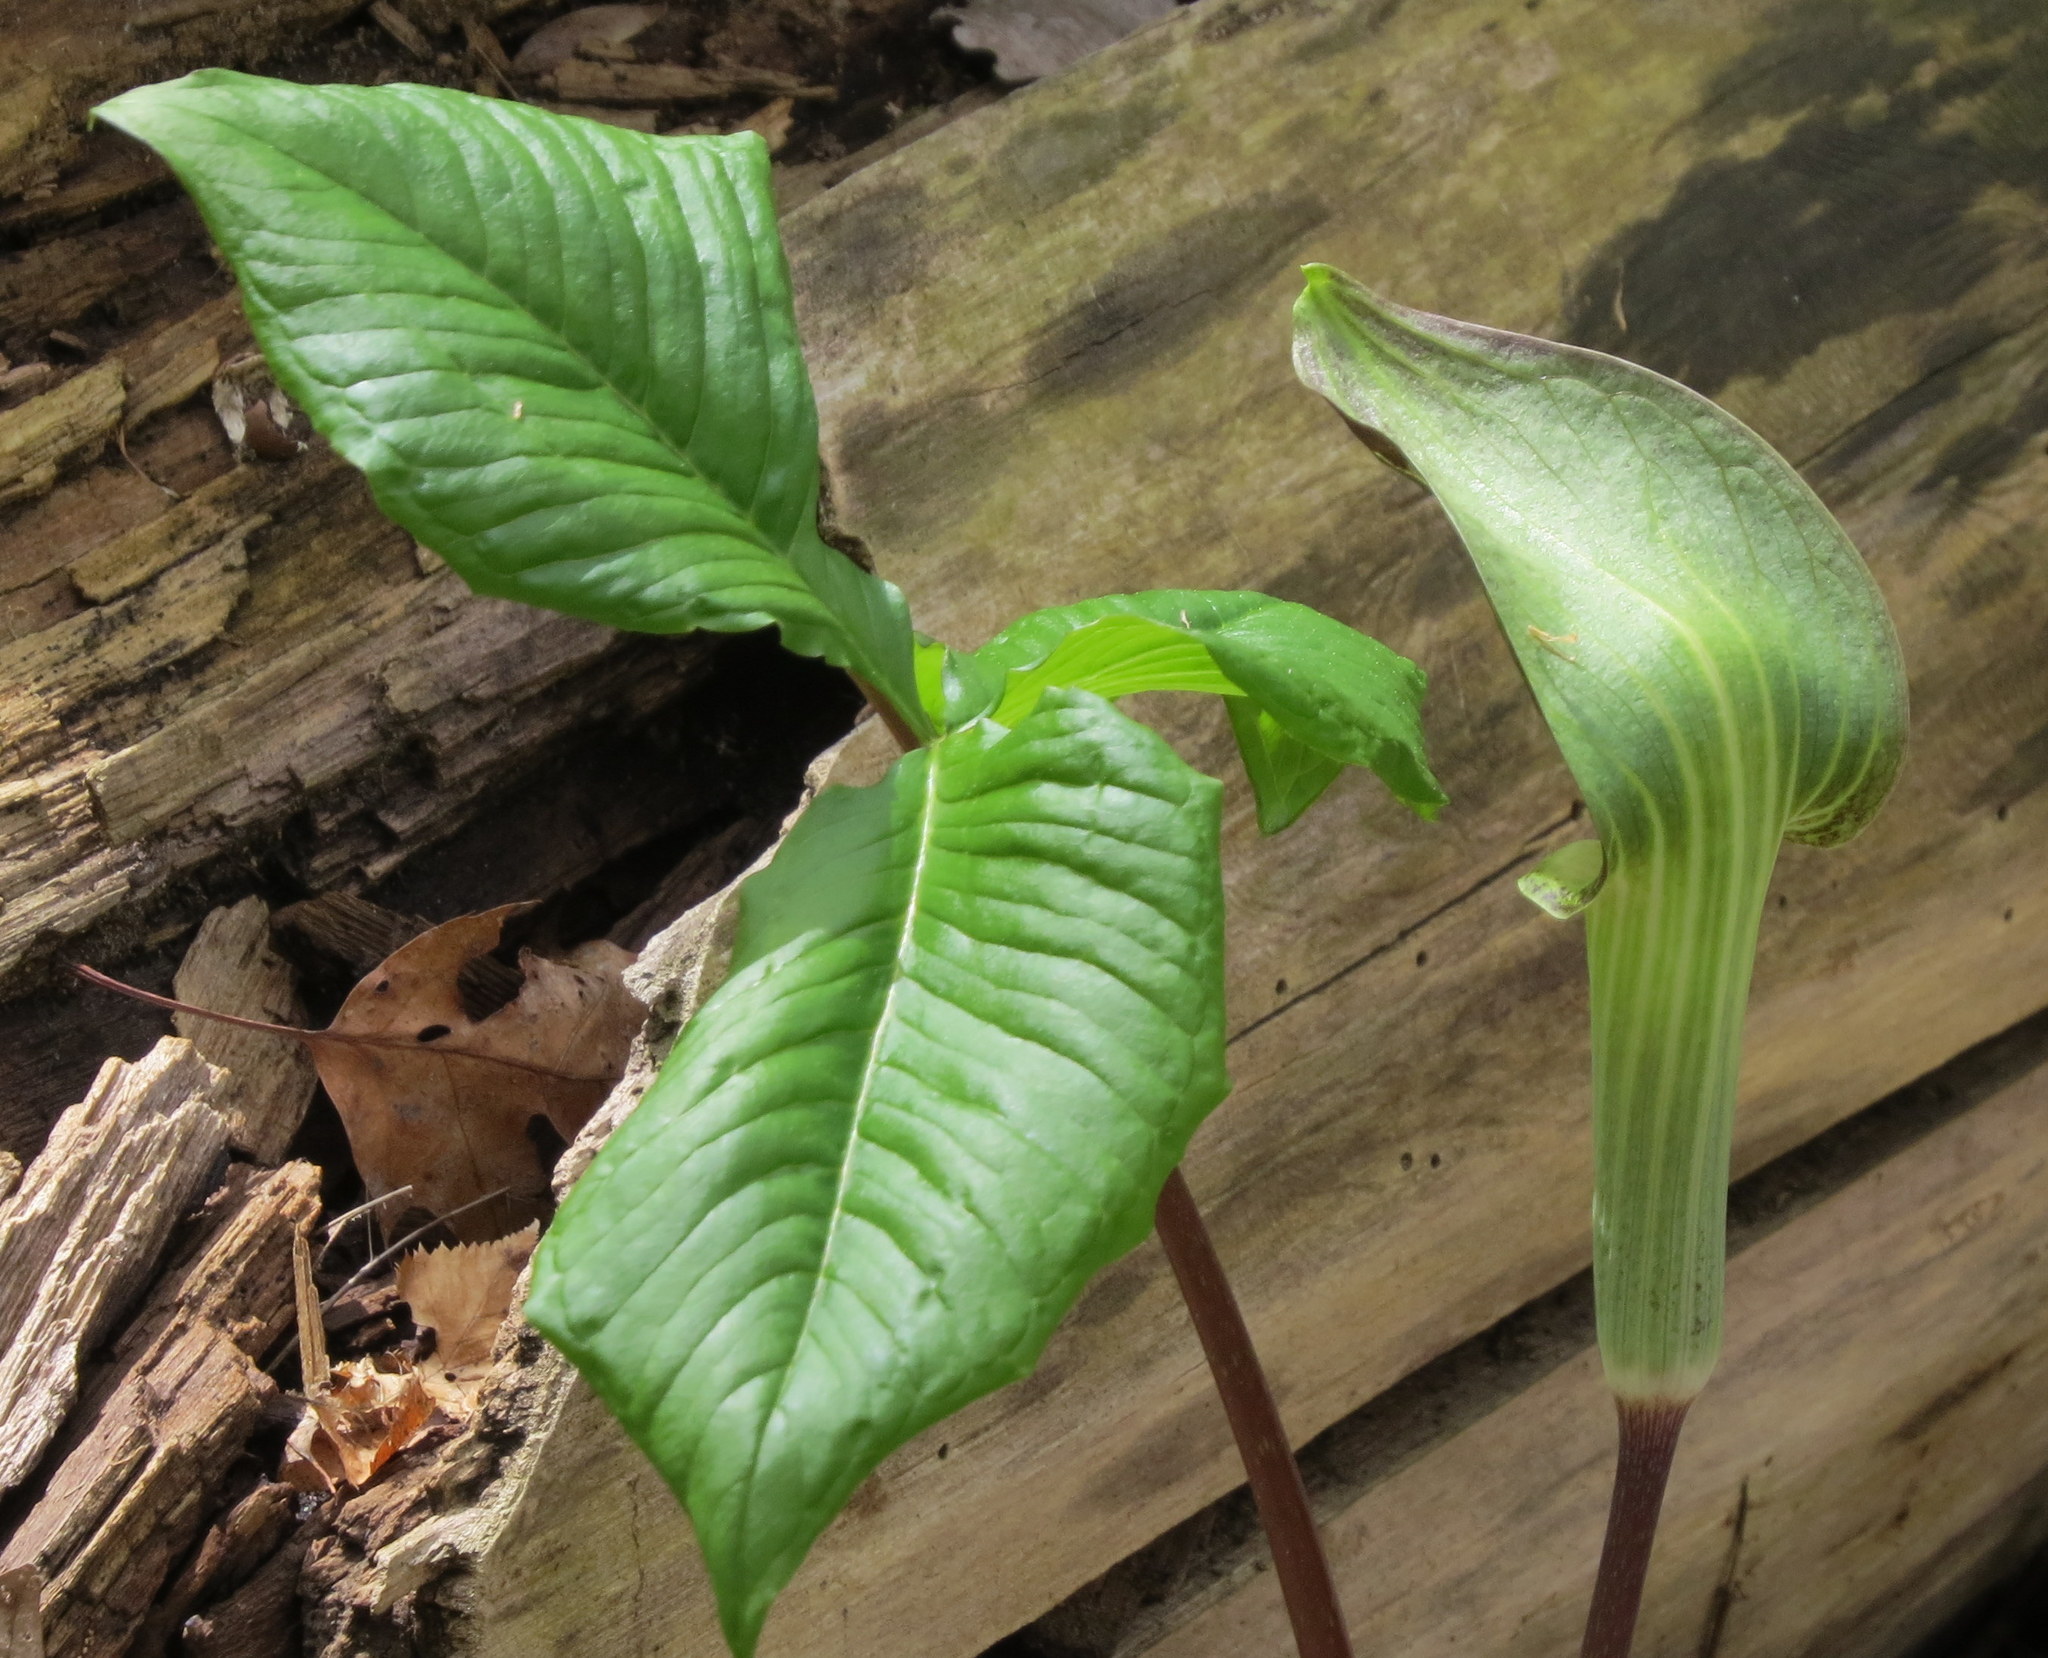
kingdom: Plantae
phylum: Tracheophyta
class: Liliopsida
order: Alismatales
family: Araceae
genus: Arisaema
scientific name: Arisaema triphyllum
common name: Jack-in-the-pulpit
